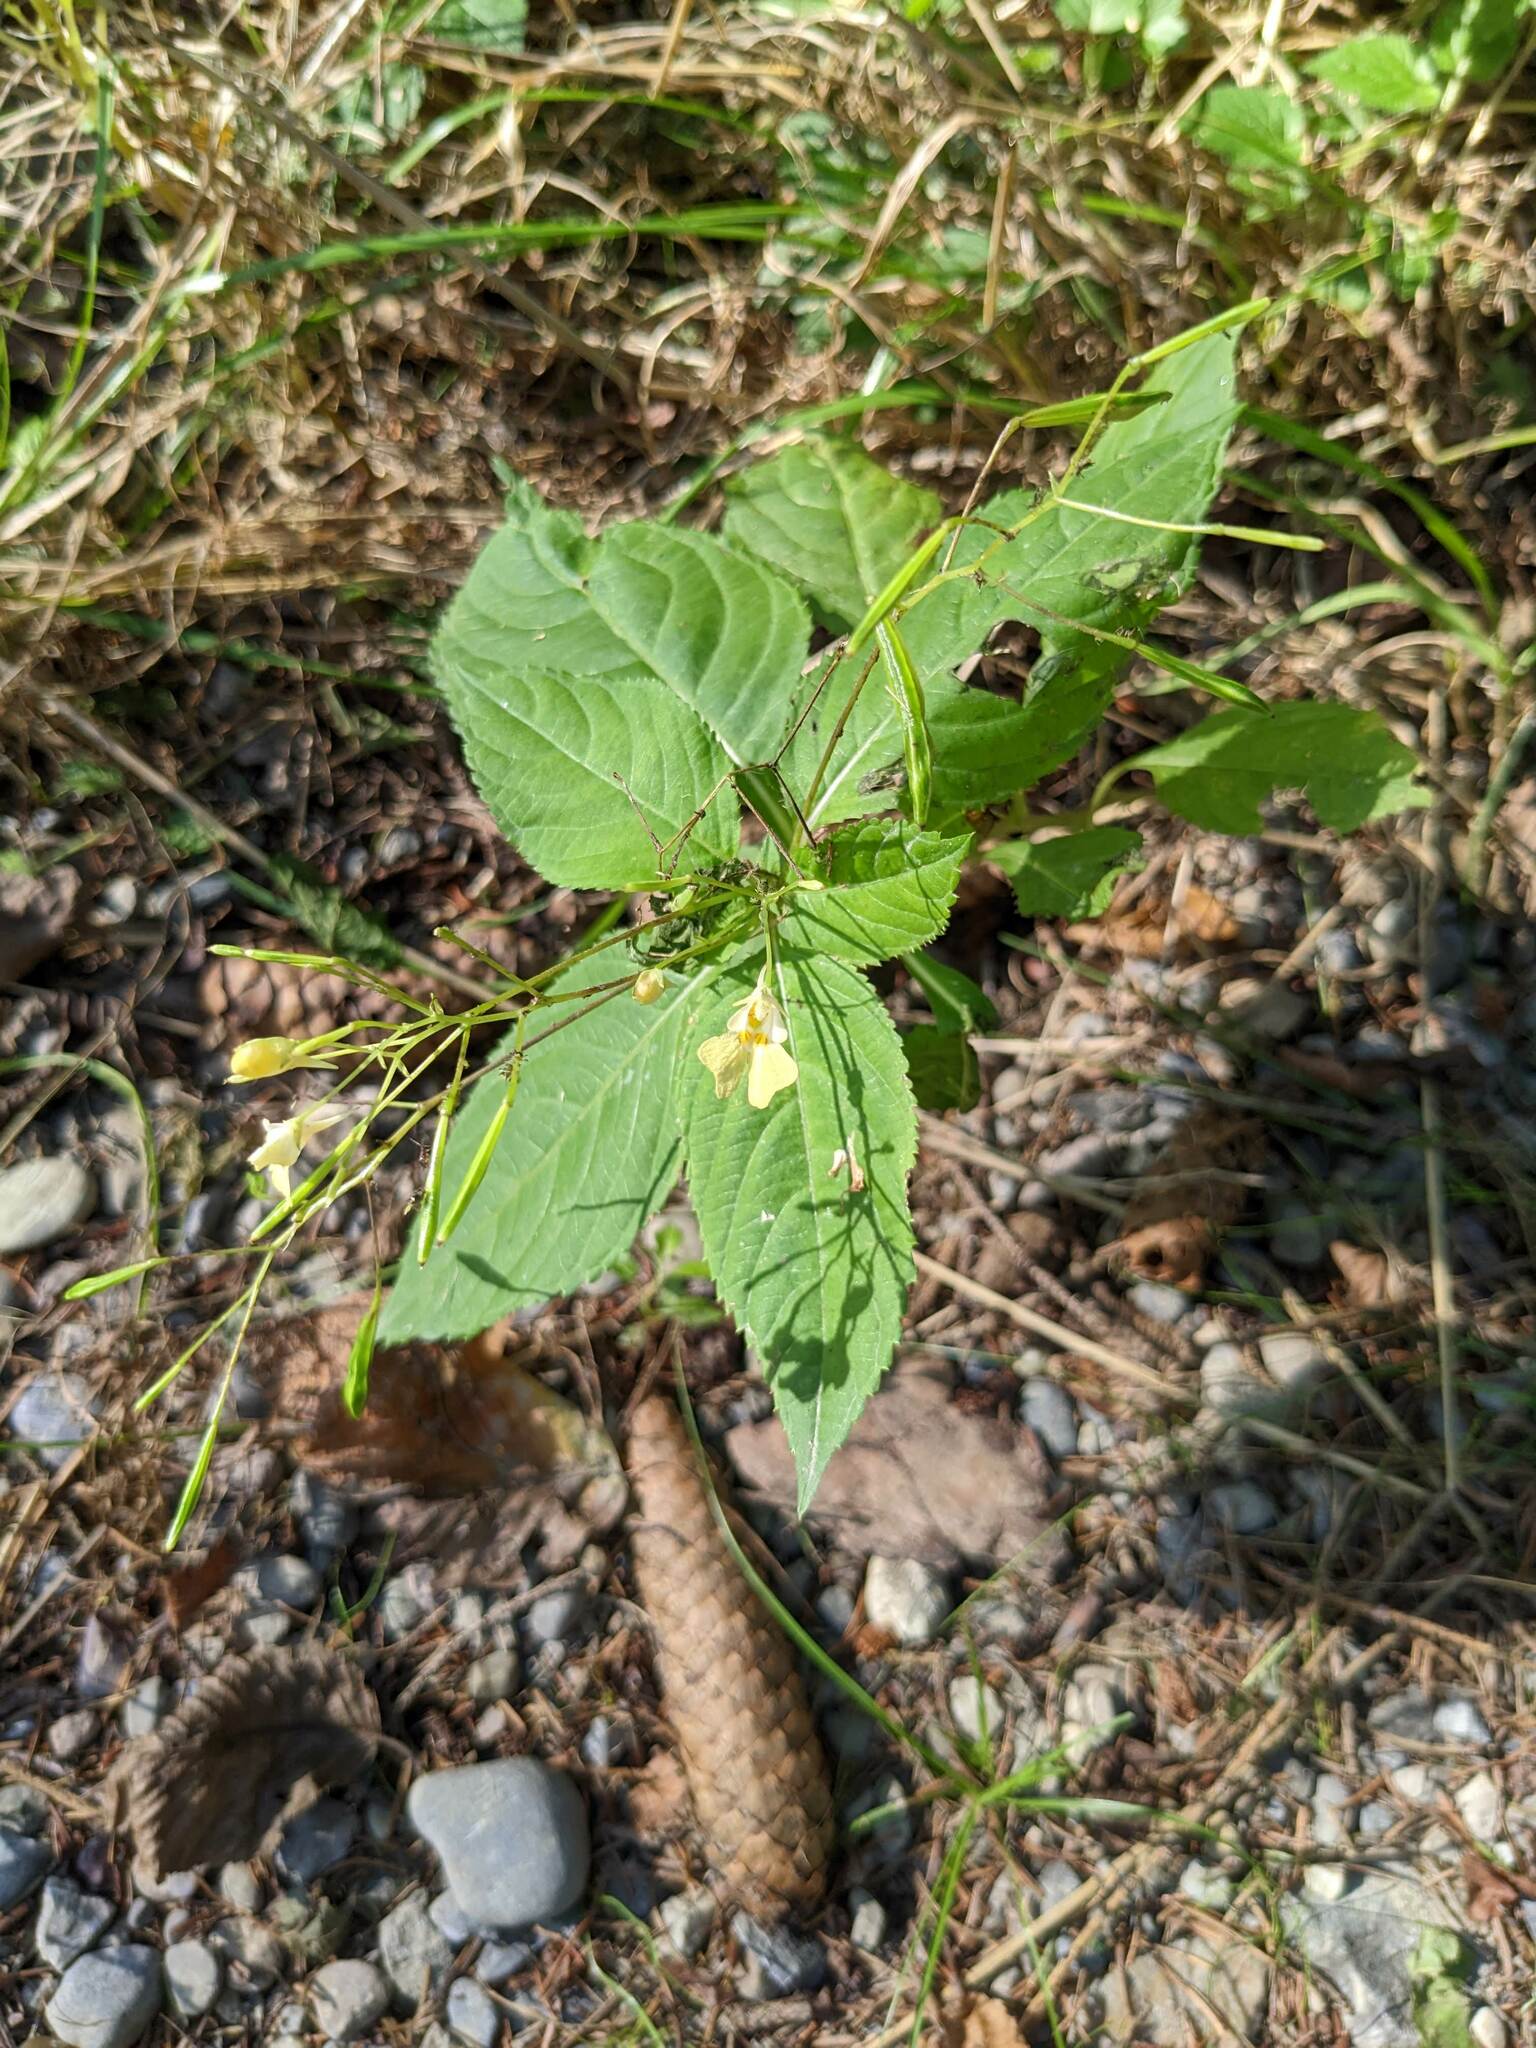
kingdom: Plantae
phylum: Tracheophyta
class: Magnoliopsida
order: Ericales
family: Balsaminaceae
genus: Impatiens
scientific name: Impatiens parviflora
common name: Small balsam
